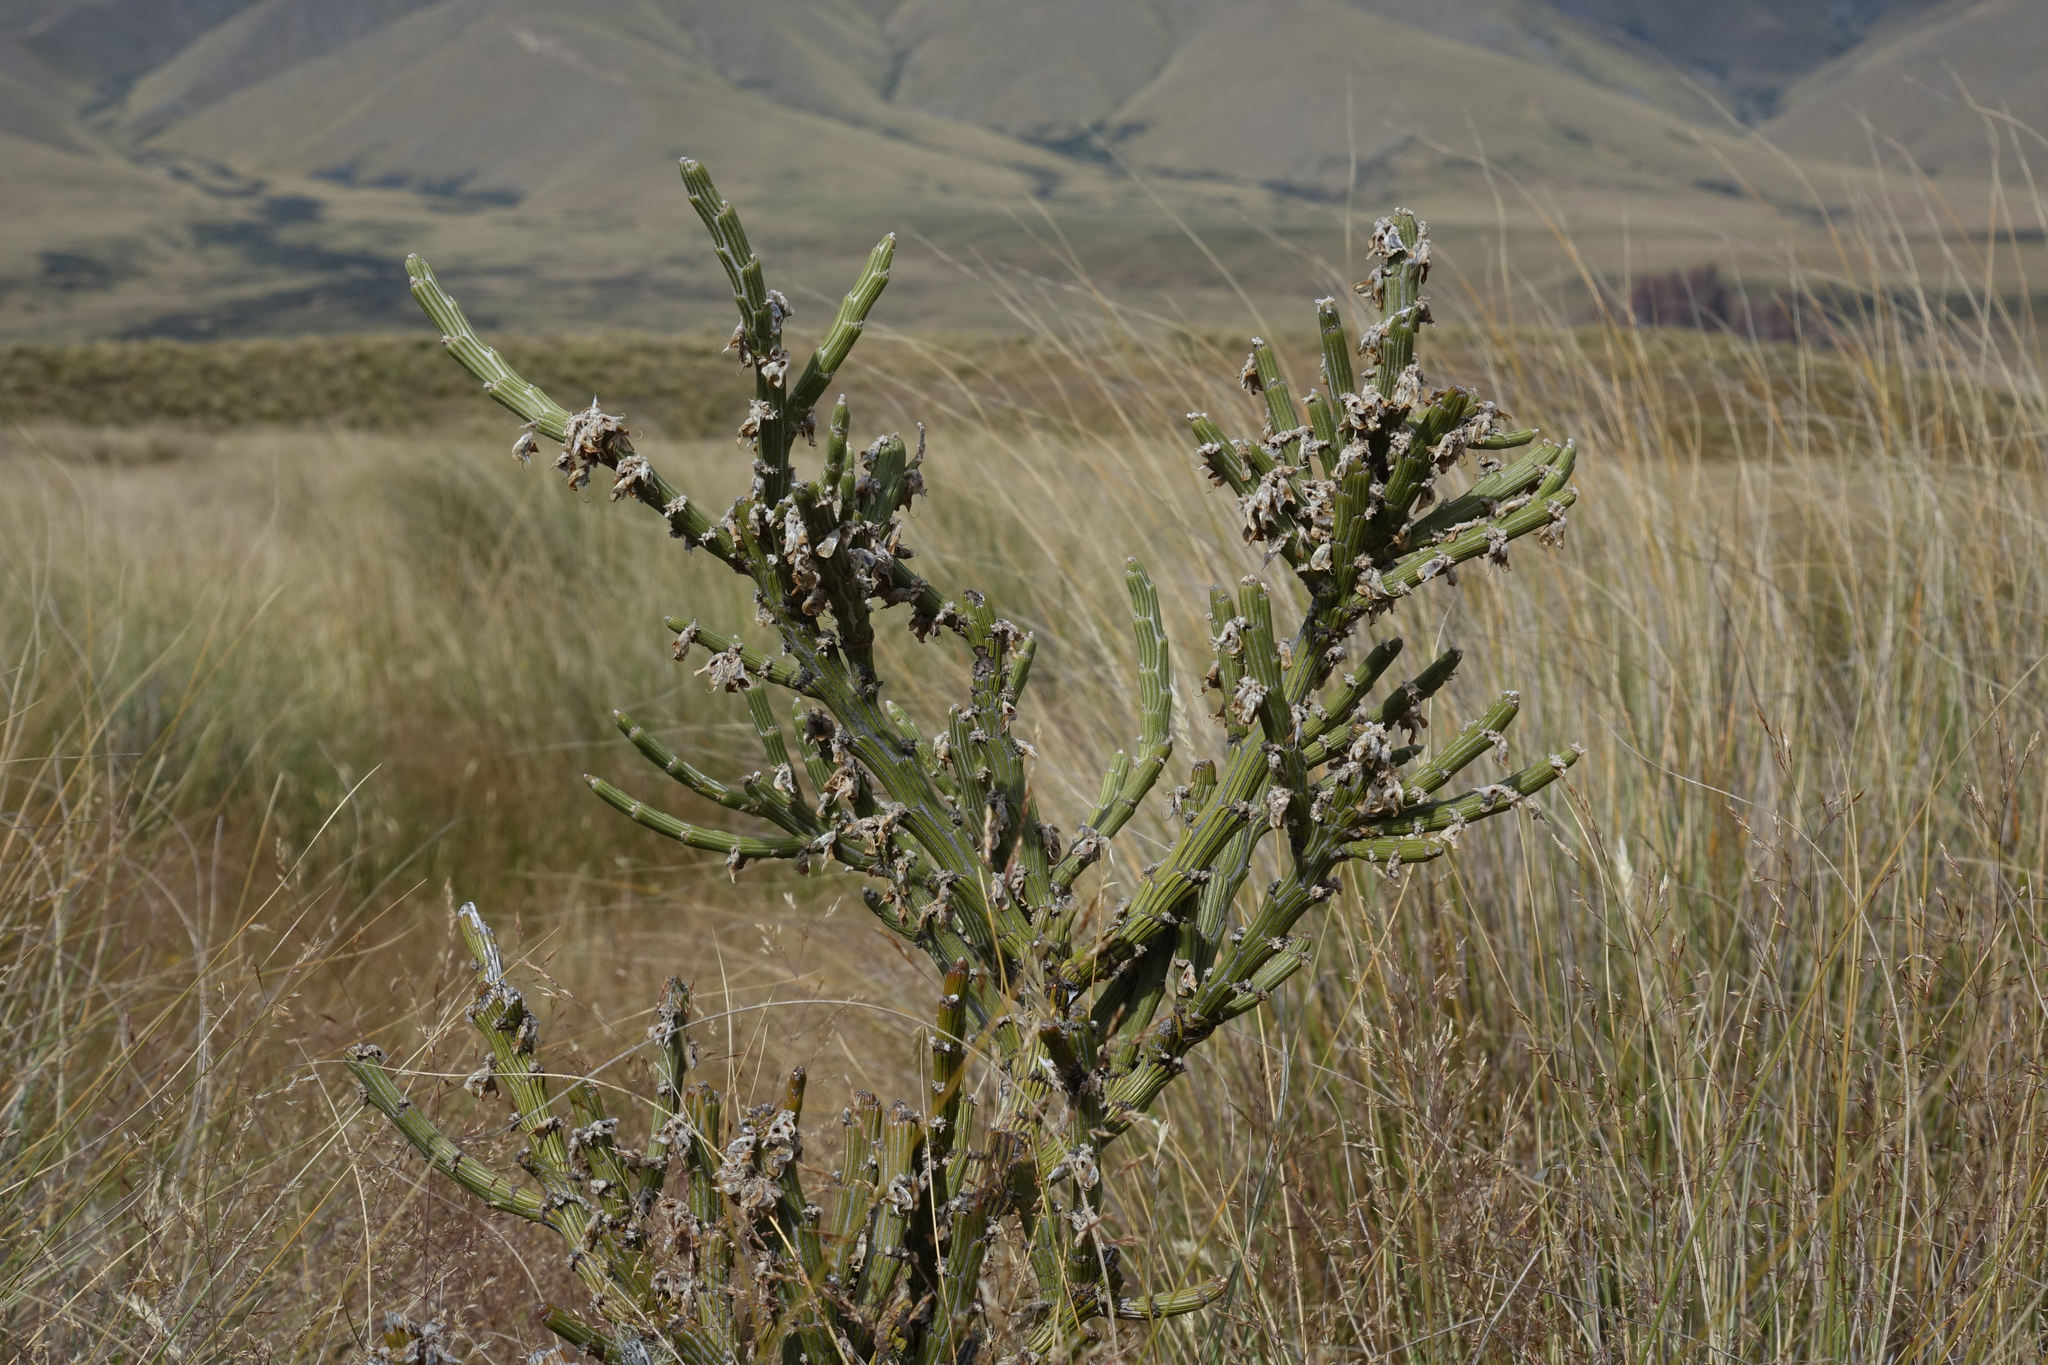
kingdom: Plantae
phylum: Tracheophyta
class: Magnoliopsida
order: Fabales
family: Fabaceae
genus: Carmichaelia
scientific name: Carmichaelia crassicaulis
